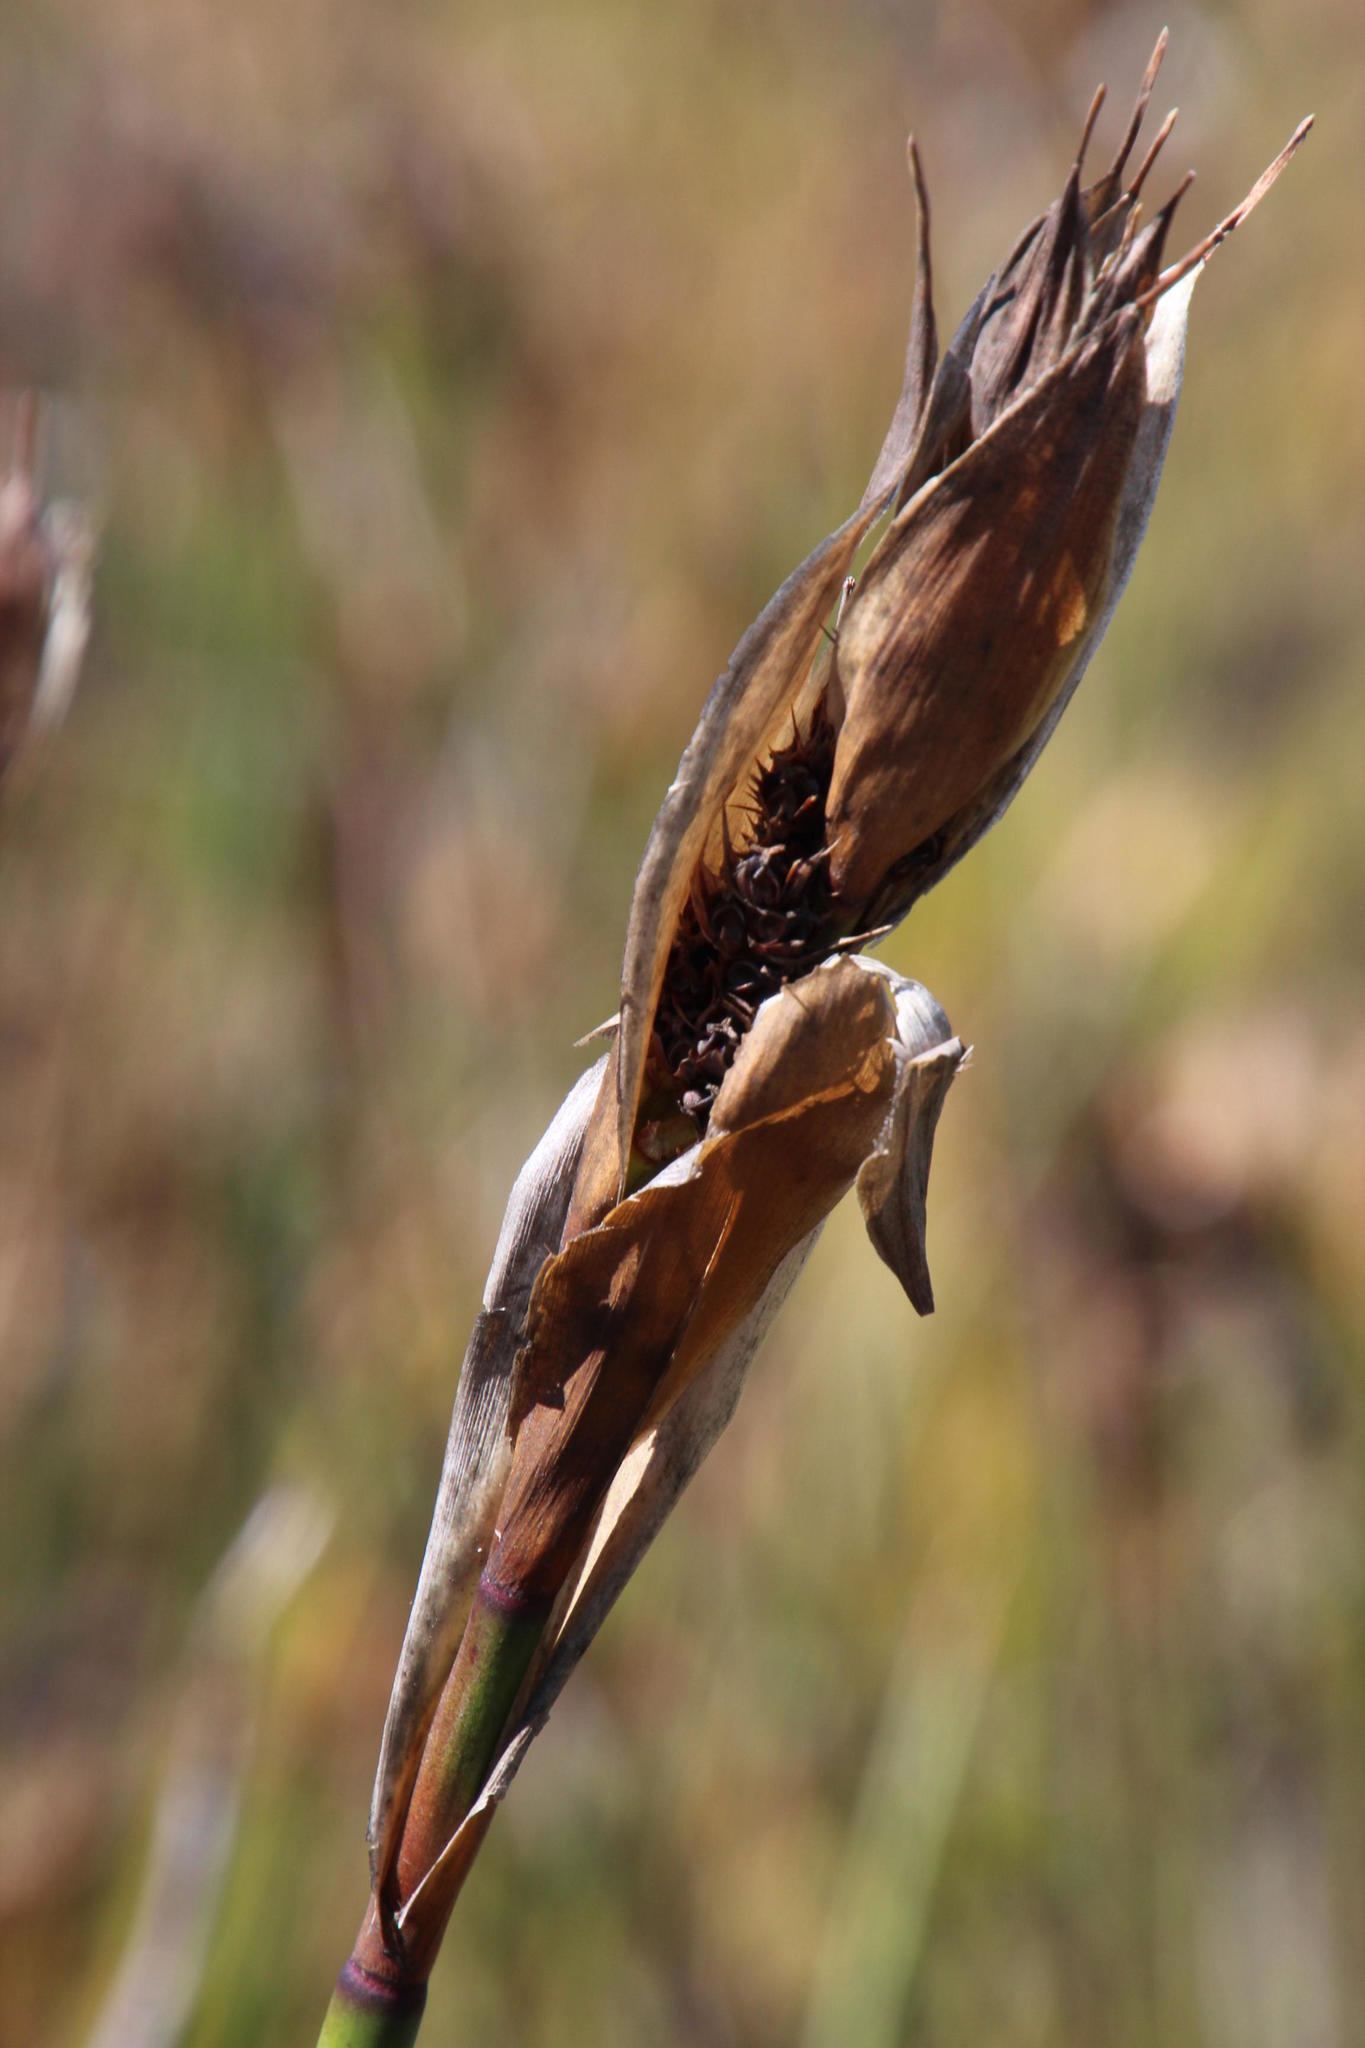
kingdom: Plantae
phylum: Tracheophyta
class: Liliopsida
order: Poales
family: Restionaceae
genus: Elegia
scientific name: Elegia mucronata
